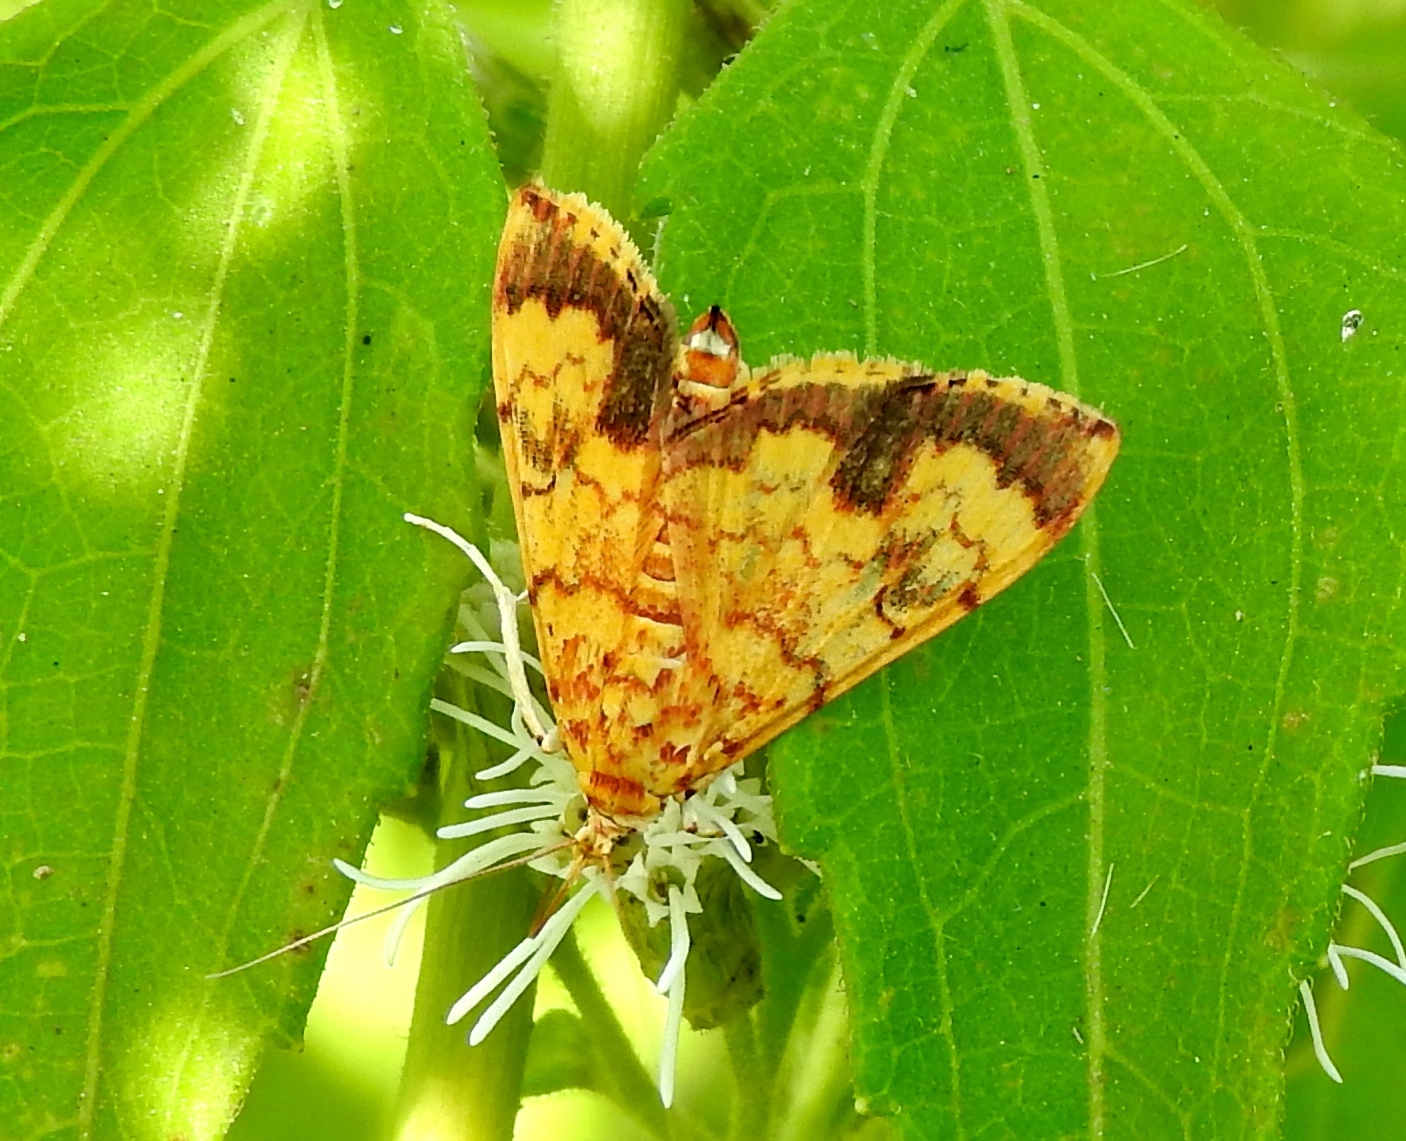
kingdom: Animalia
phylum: Arthropoda
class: Insecta
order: Lepidoptera
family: Crambidae
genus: Portentomorpha
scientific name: Portentomorpha
